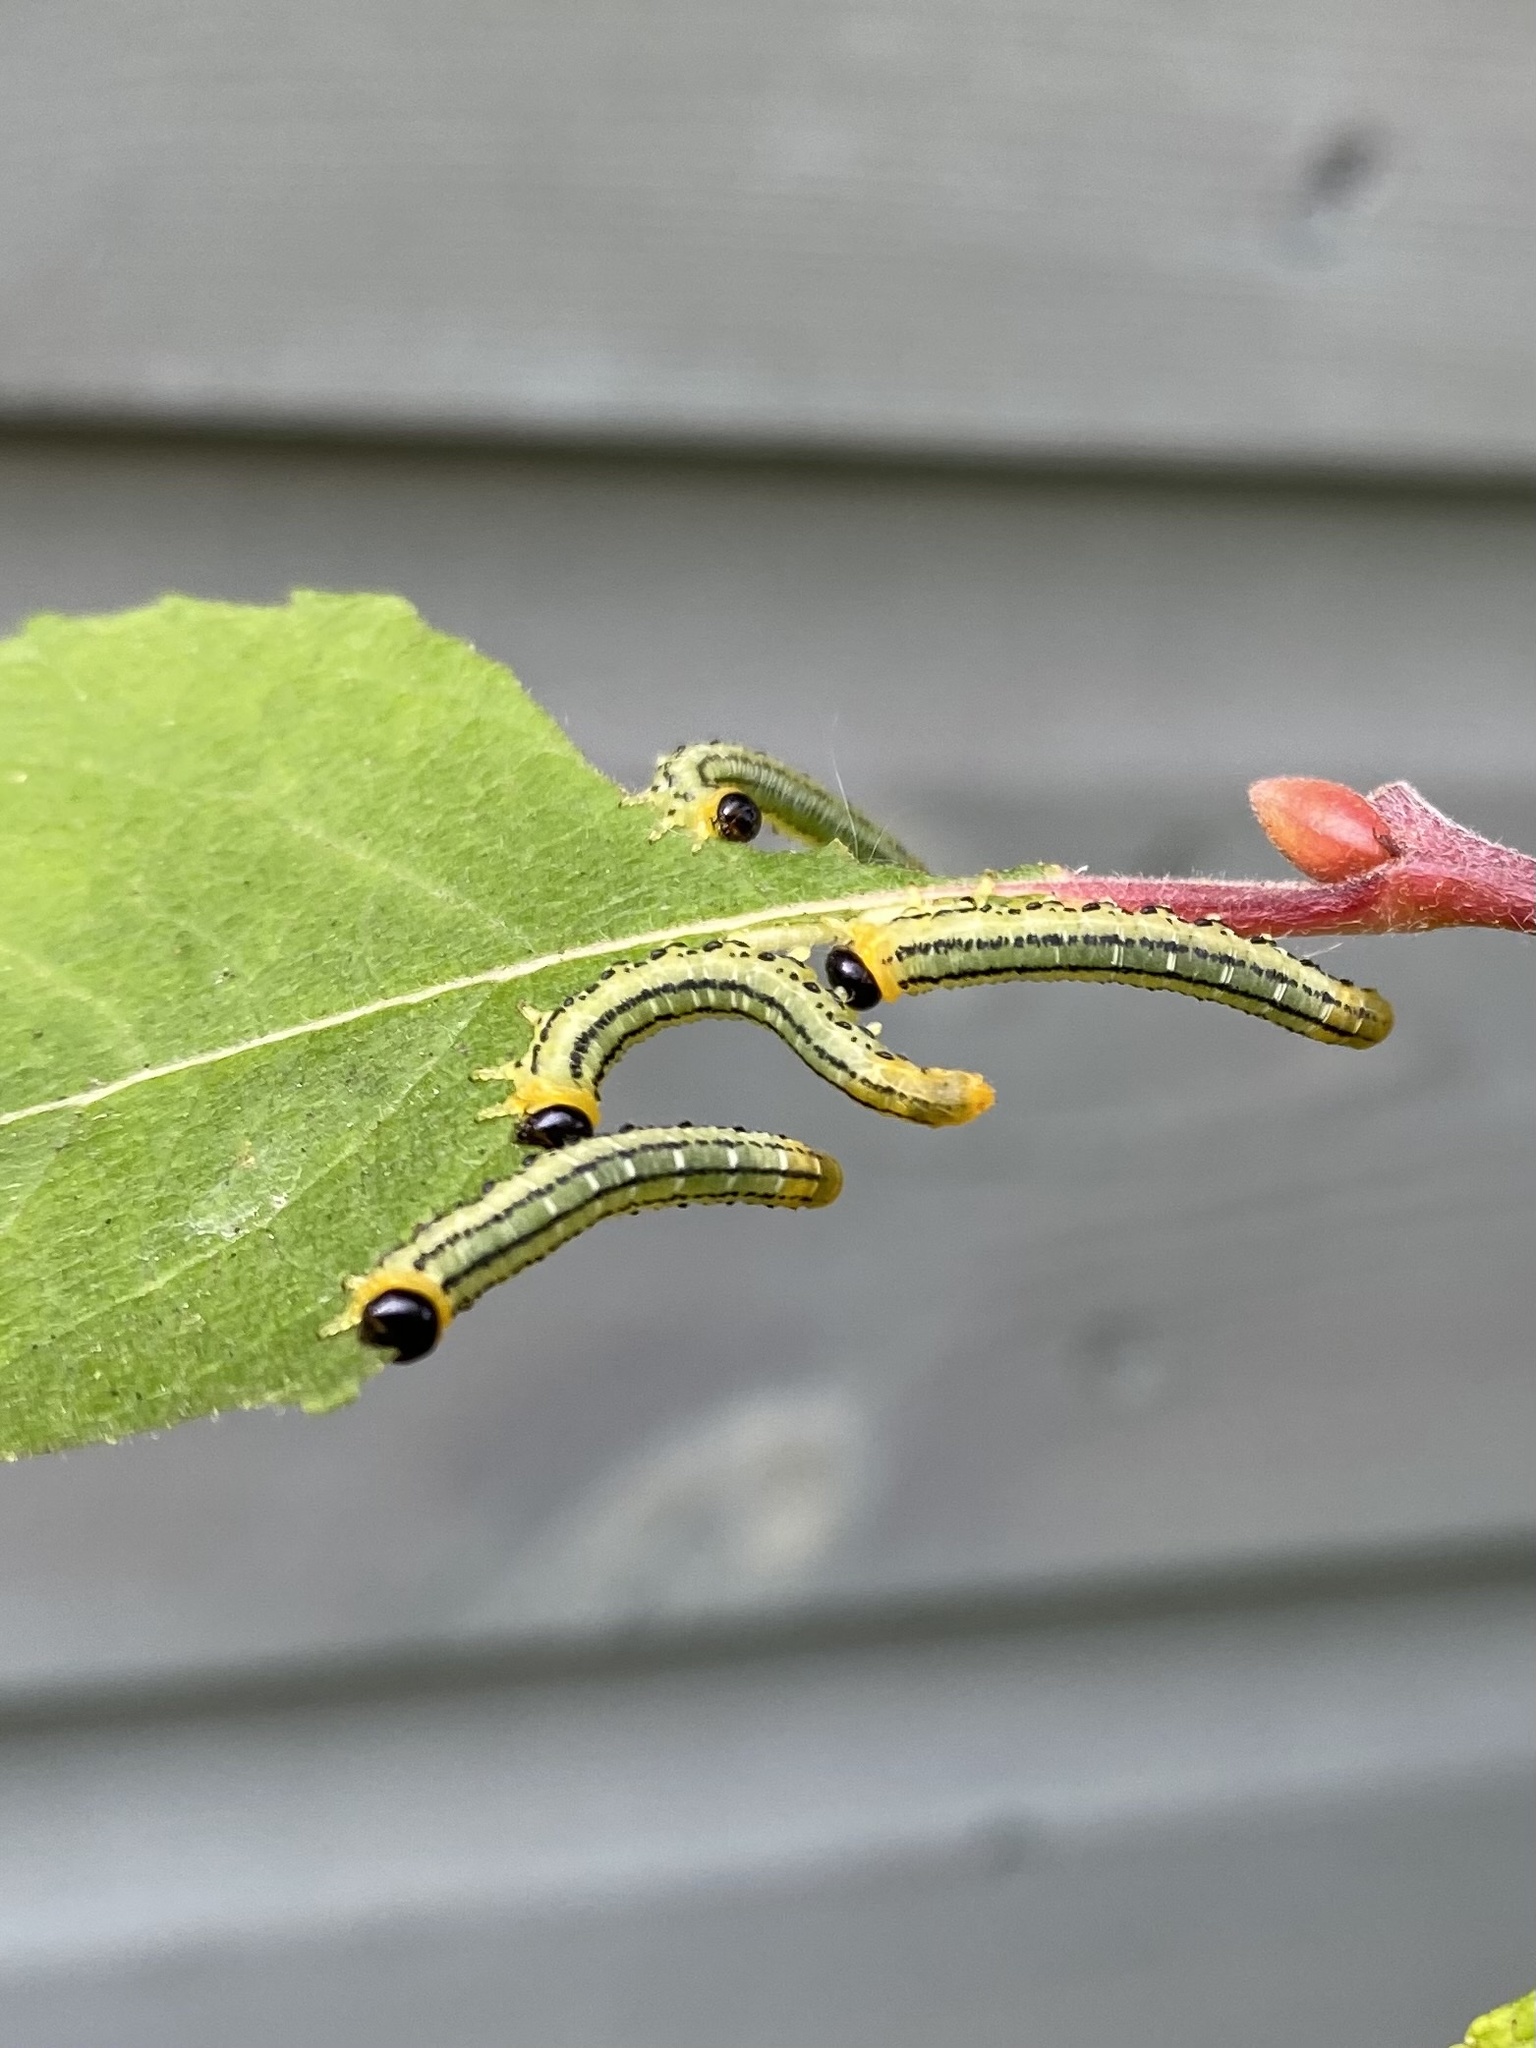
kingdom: Animalia
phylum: Arthropoda
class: Insecta
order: Hymenoptera
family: Tenthredinidae
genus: Nematus
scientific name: Nematus pavidus
